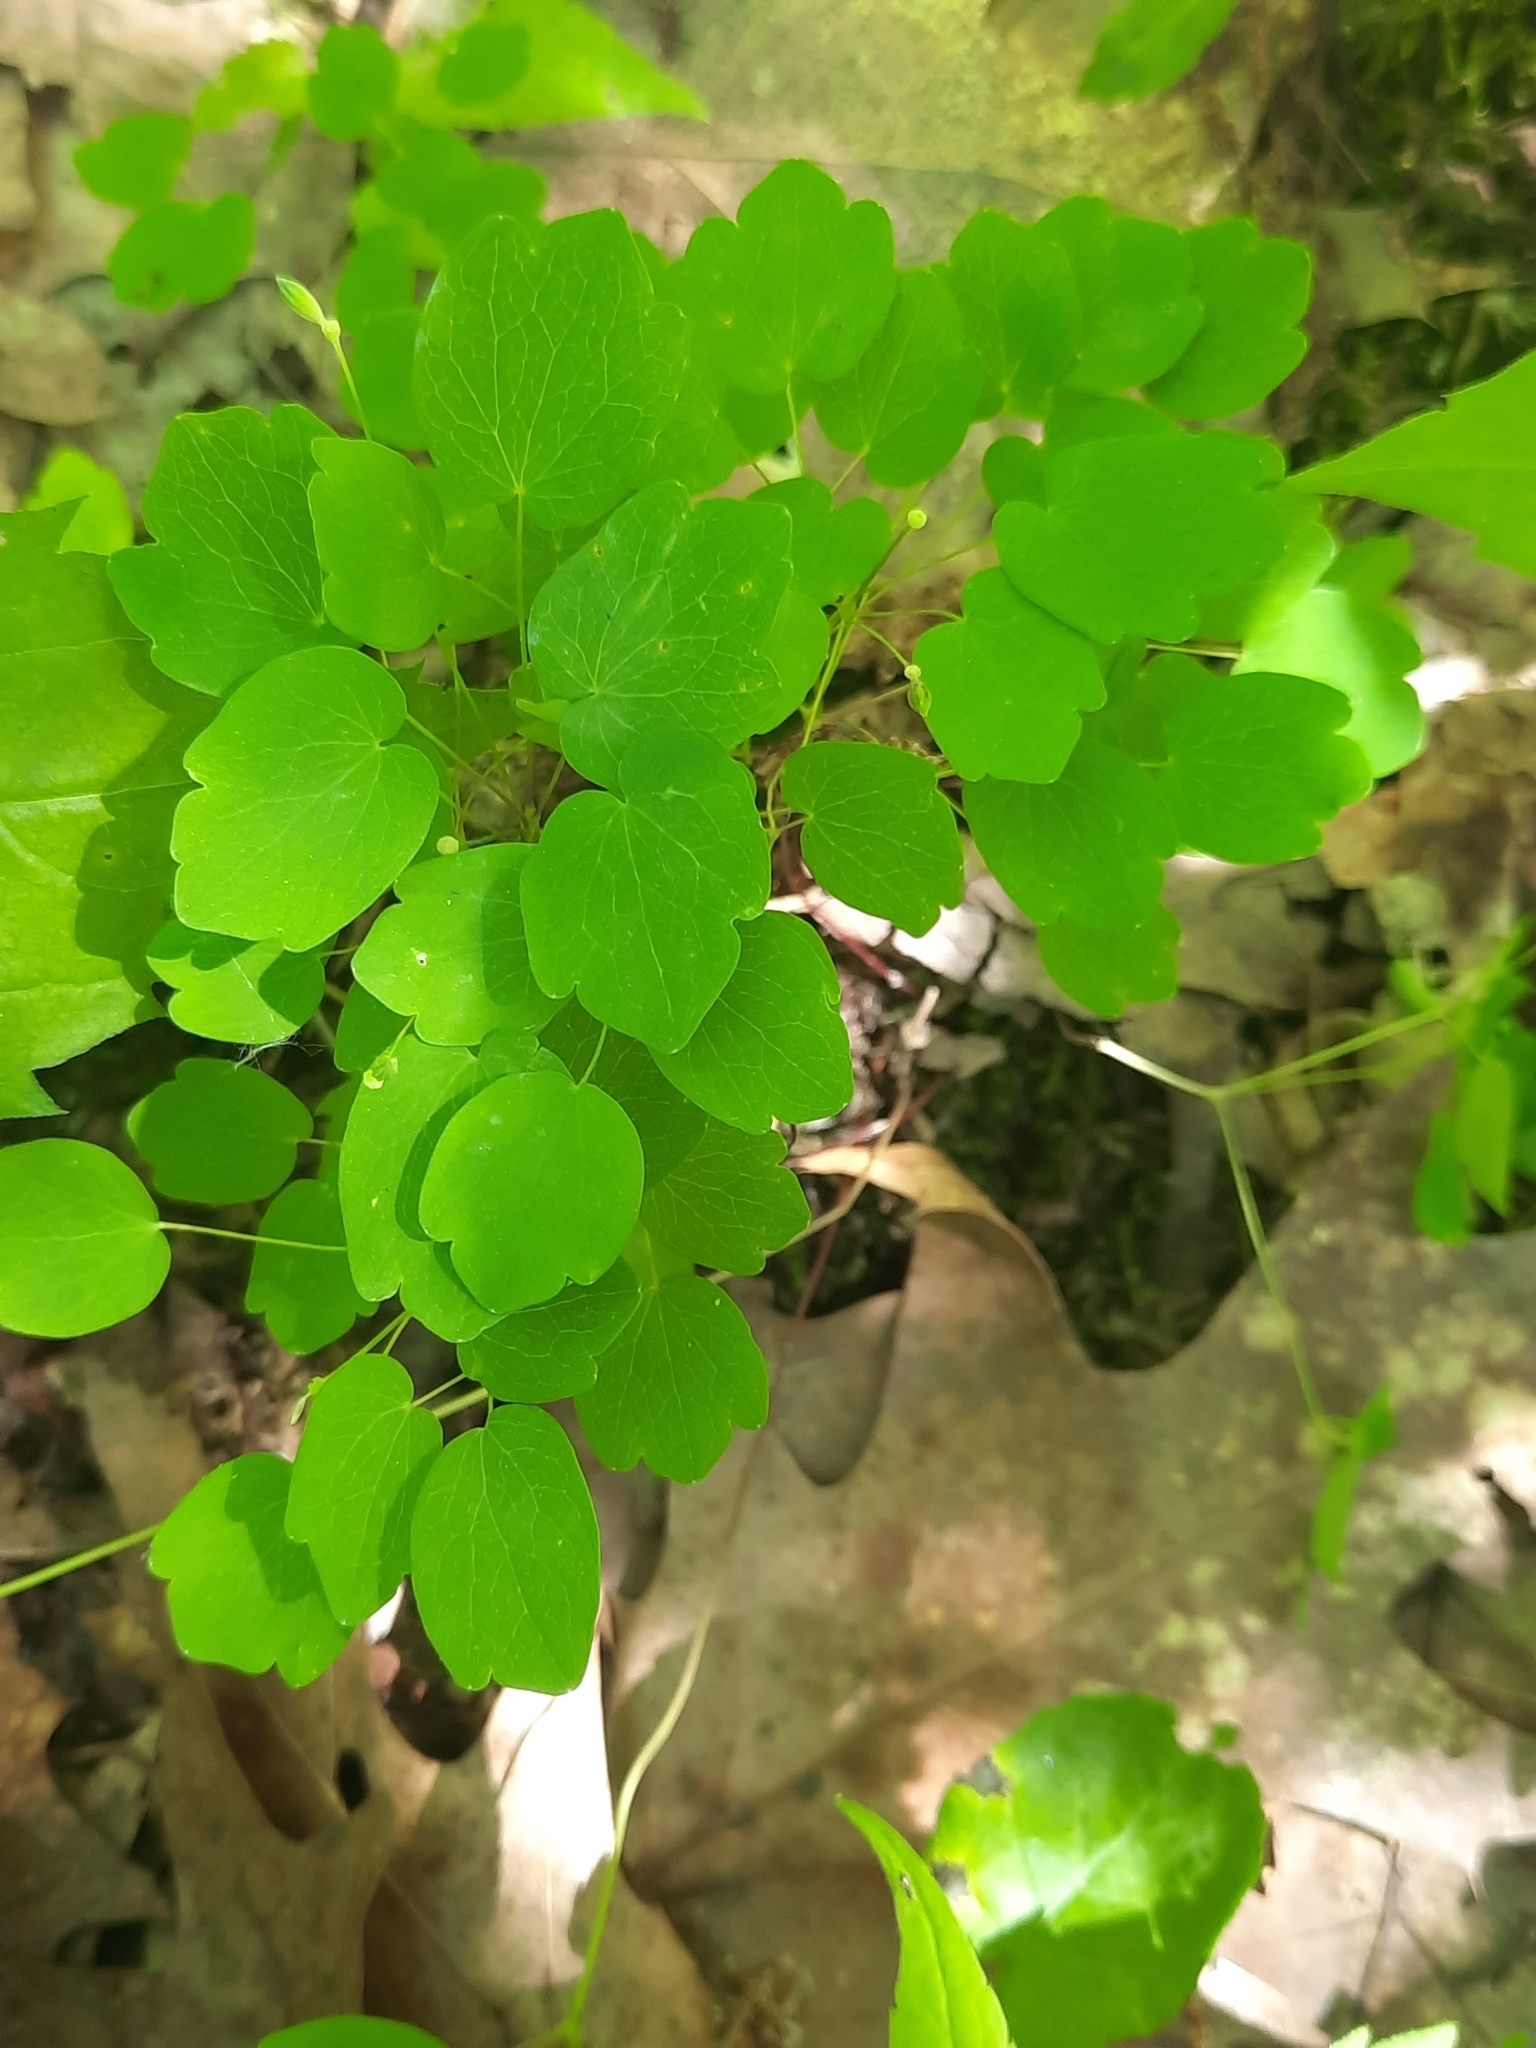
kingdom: Plantae
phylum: Tracheophyta
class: Magnoliopsida
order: Ranunculales
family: Ranunculaceae
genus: Thalictrum
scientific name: Thalictrum thalictroides
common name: Rue-anemone
